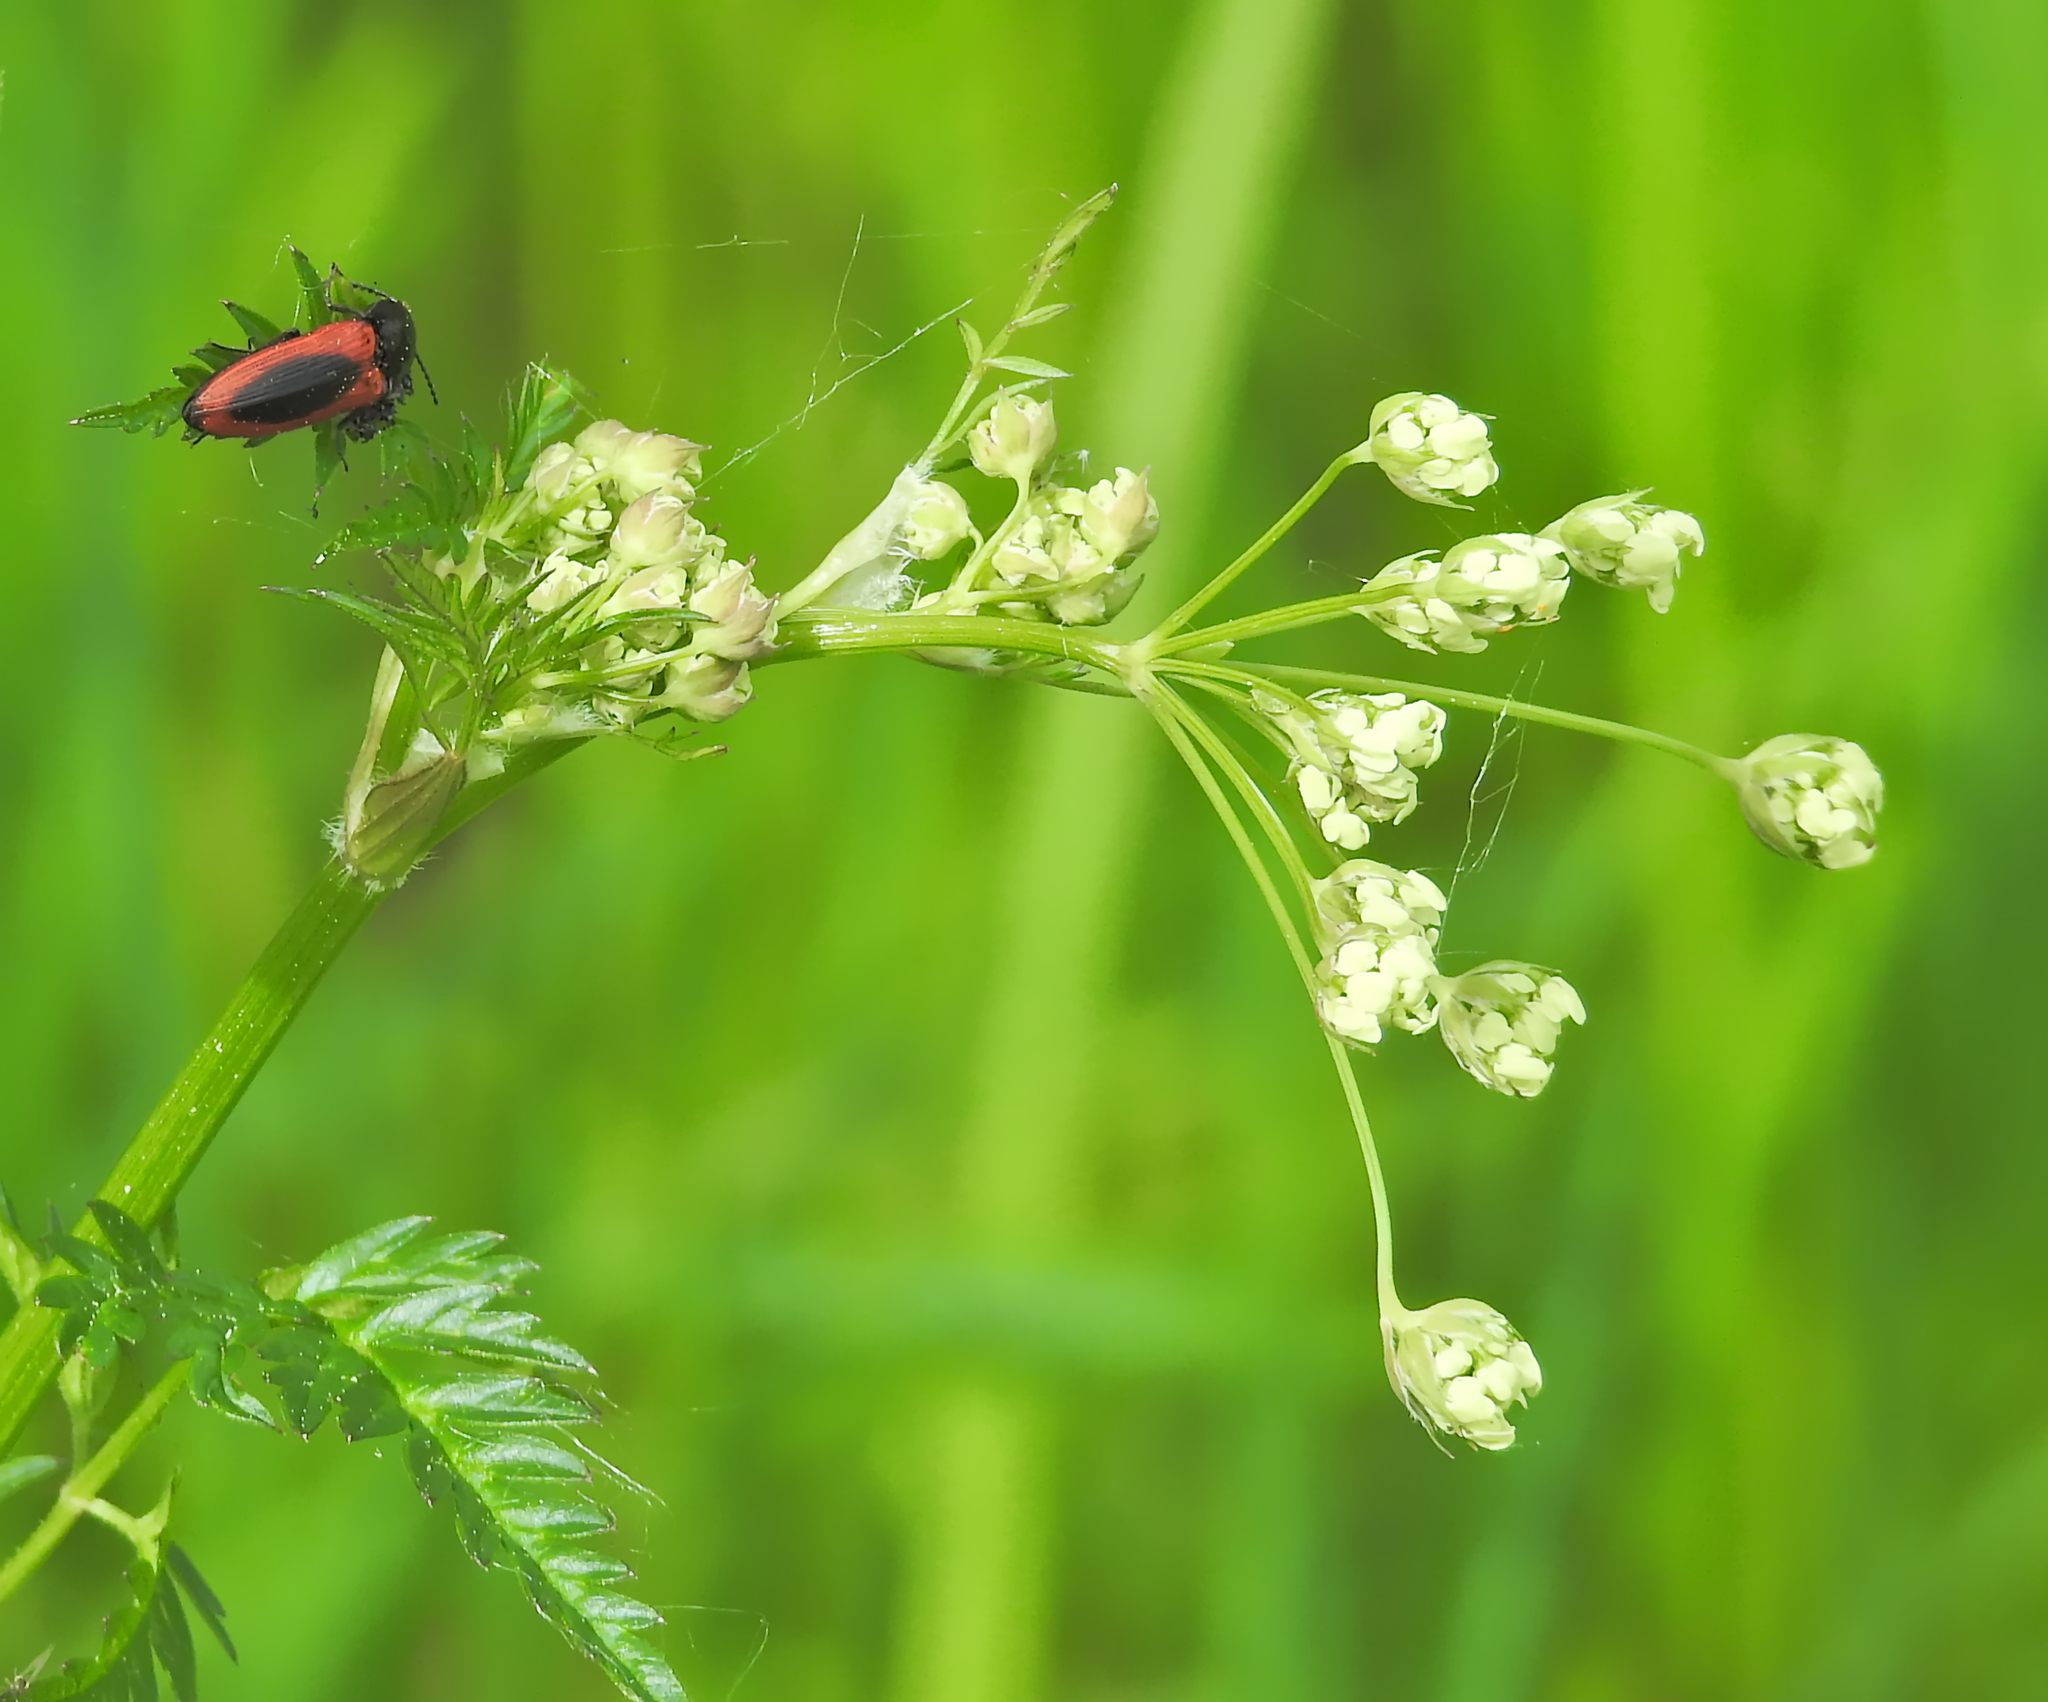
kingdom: Animalia
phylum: Arthropoda
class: Insecta
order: Coleoptera
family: Elateridae
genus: Ampedus
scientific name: Ampedus sanguinolentus
